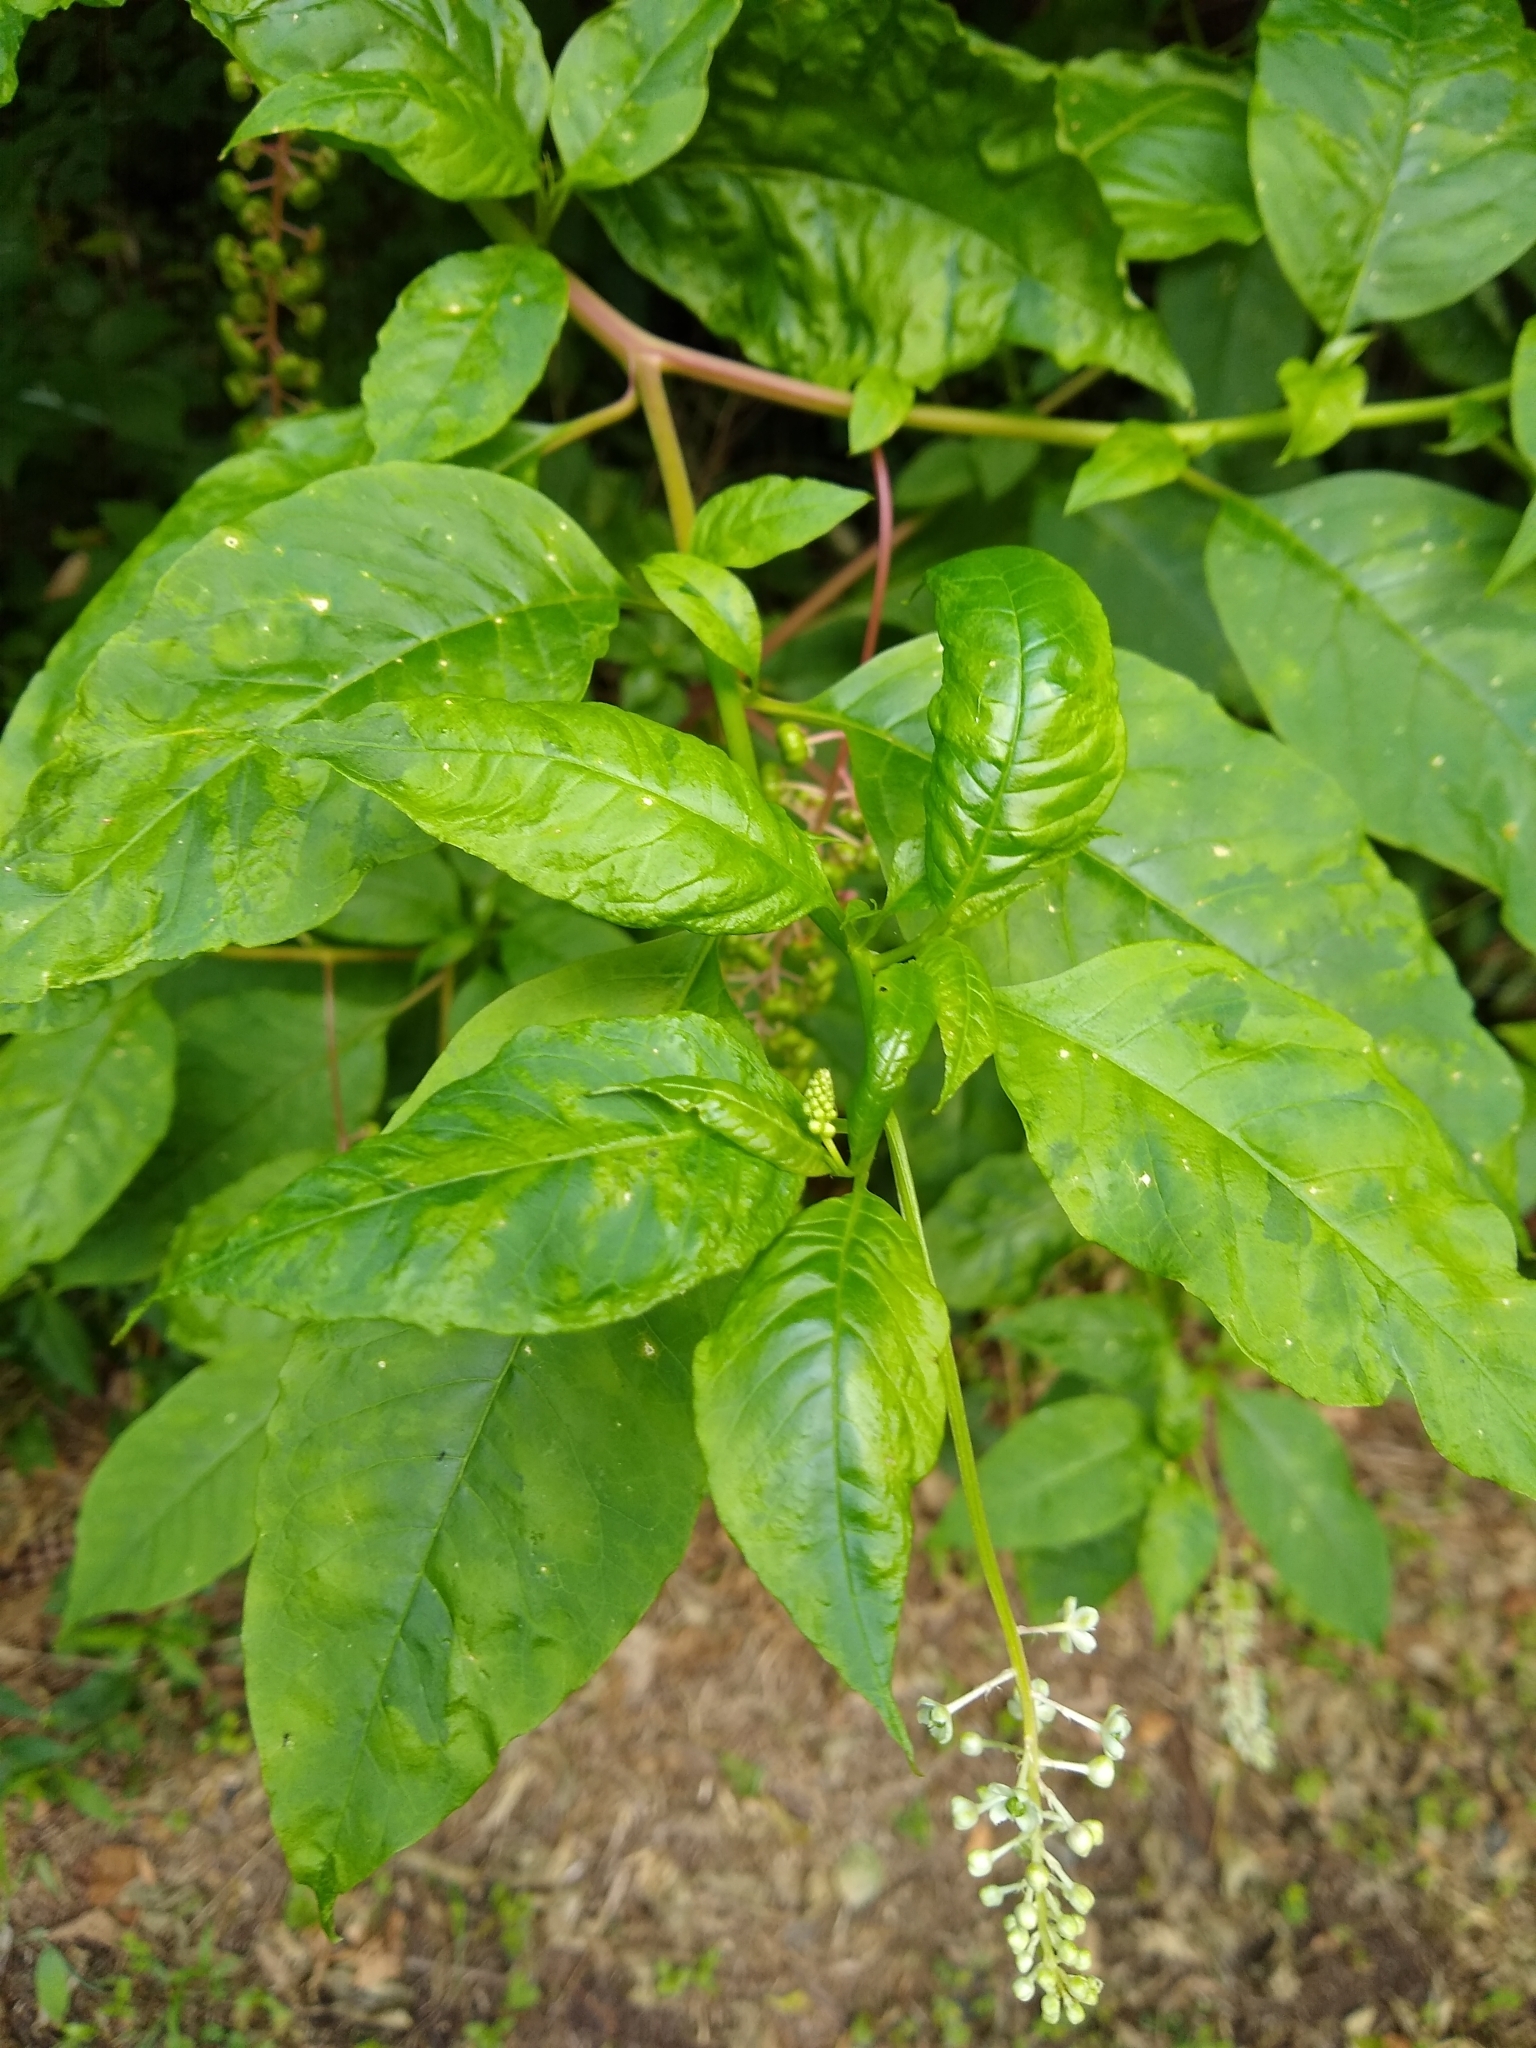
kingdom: Viruses
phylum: Pisuviricota
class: Stelpaviricetes
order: Patatavirales
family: Potyviridae
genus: Potyvirus
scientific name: Potyvirus Pokeweed mosaic virus
